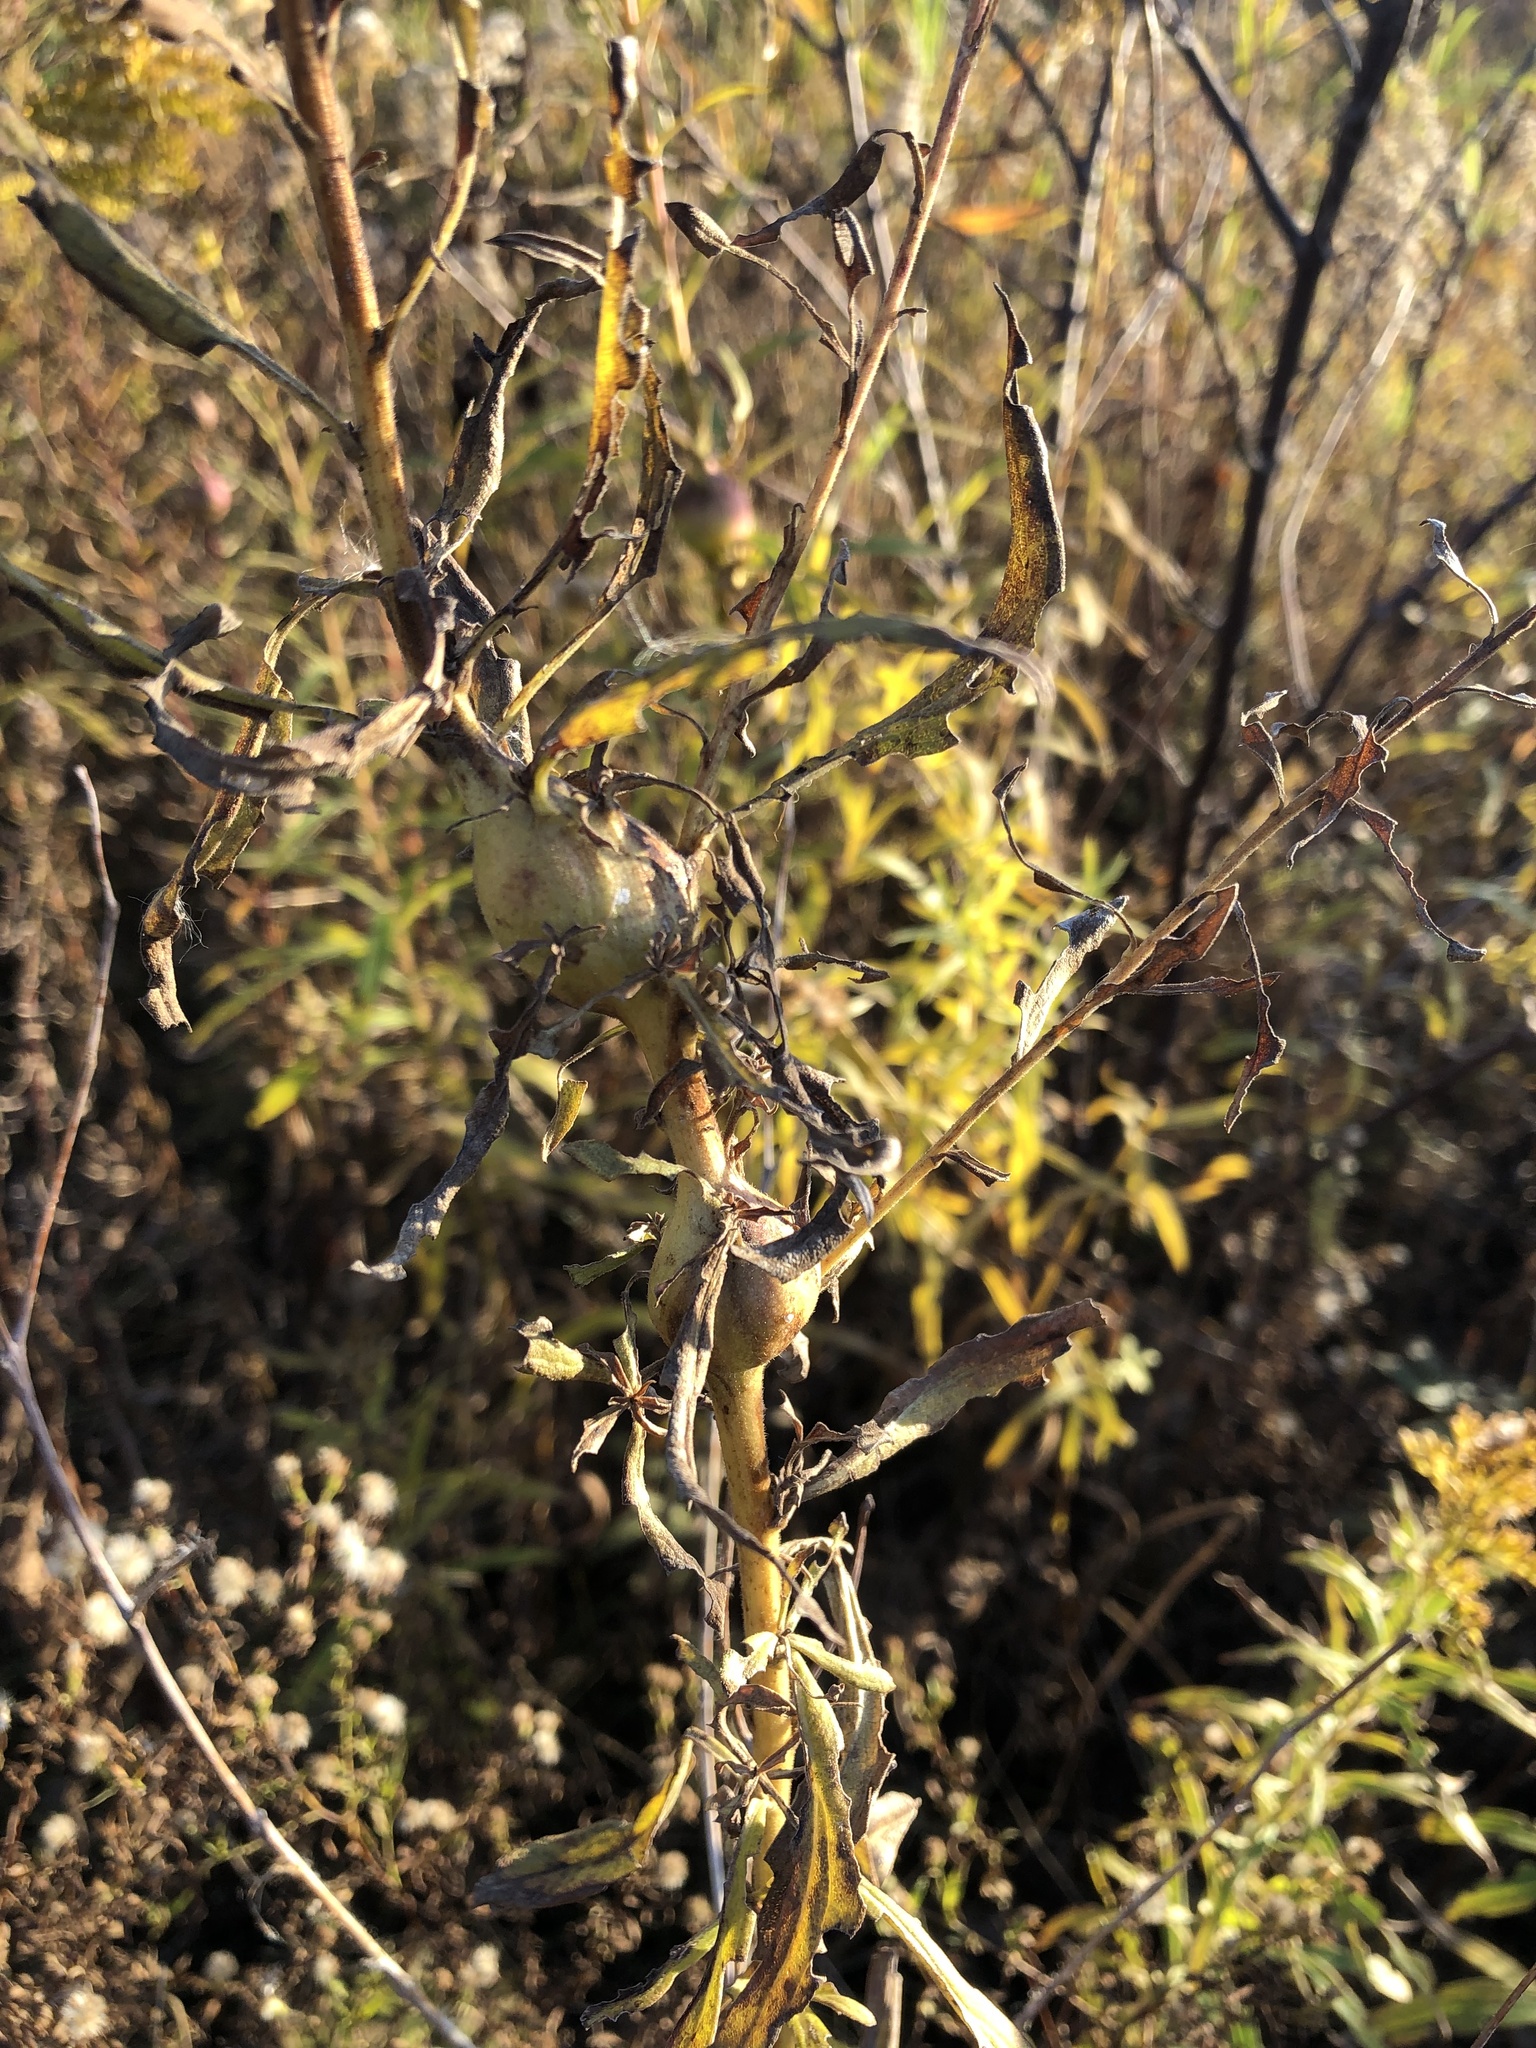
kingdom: Animalia
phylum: Arthropoda
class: Insecta
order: Diptera
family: Tephritidae
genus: Eurosta
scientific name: Eurosta solidaginis
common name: Goldenrod gall fly
